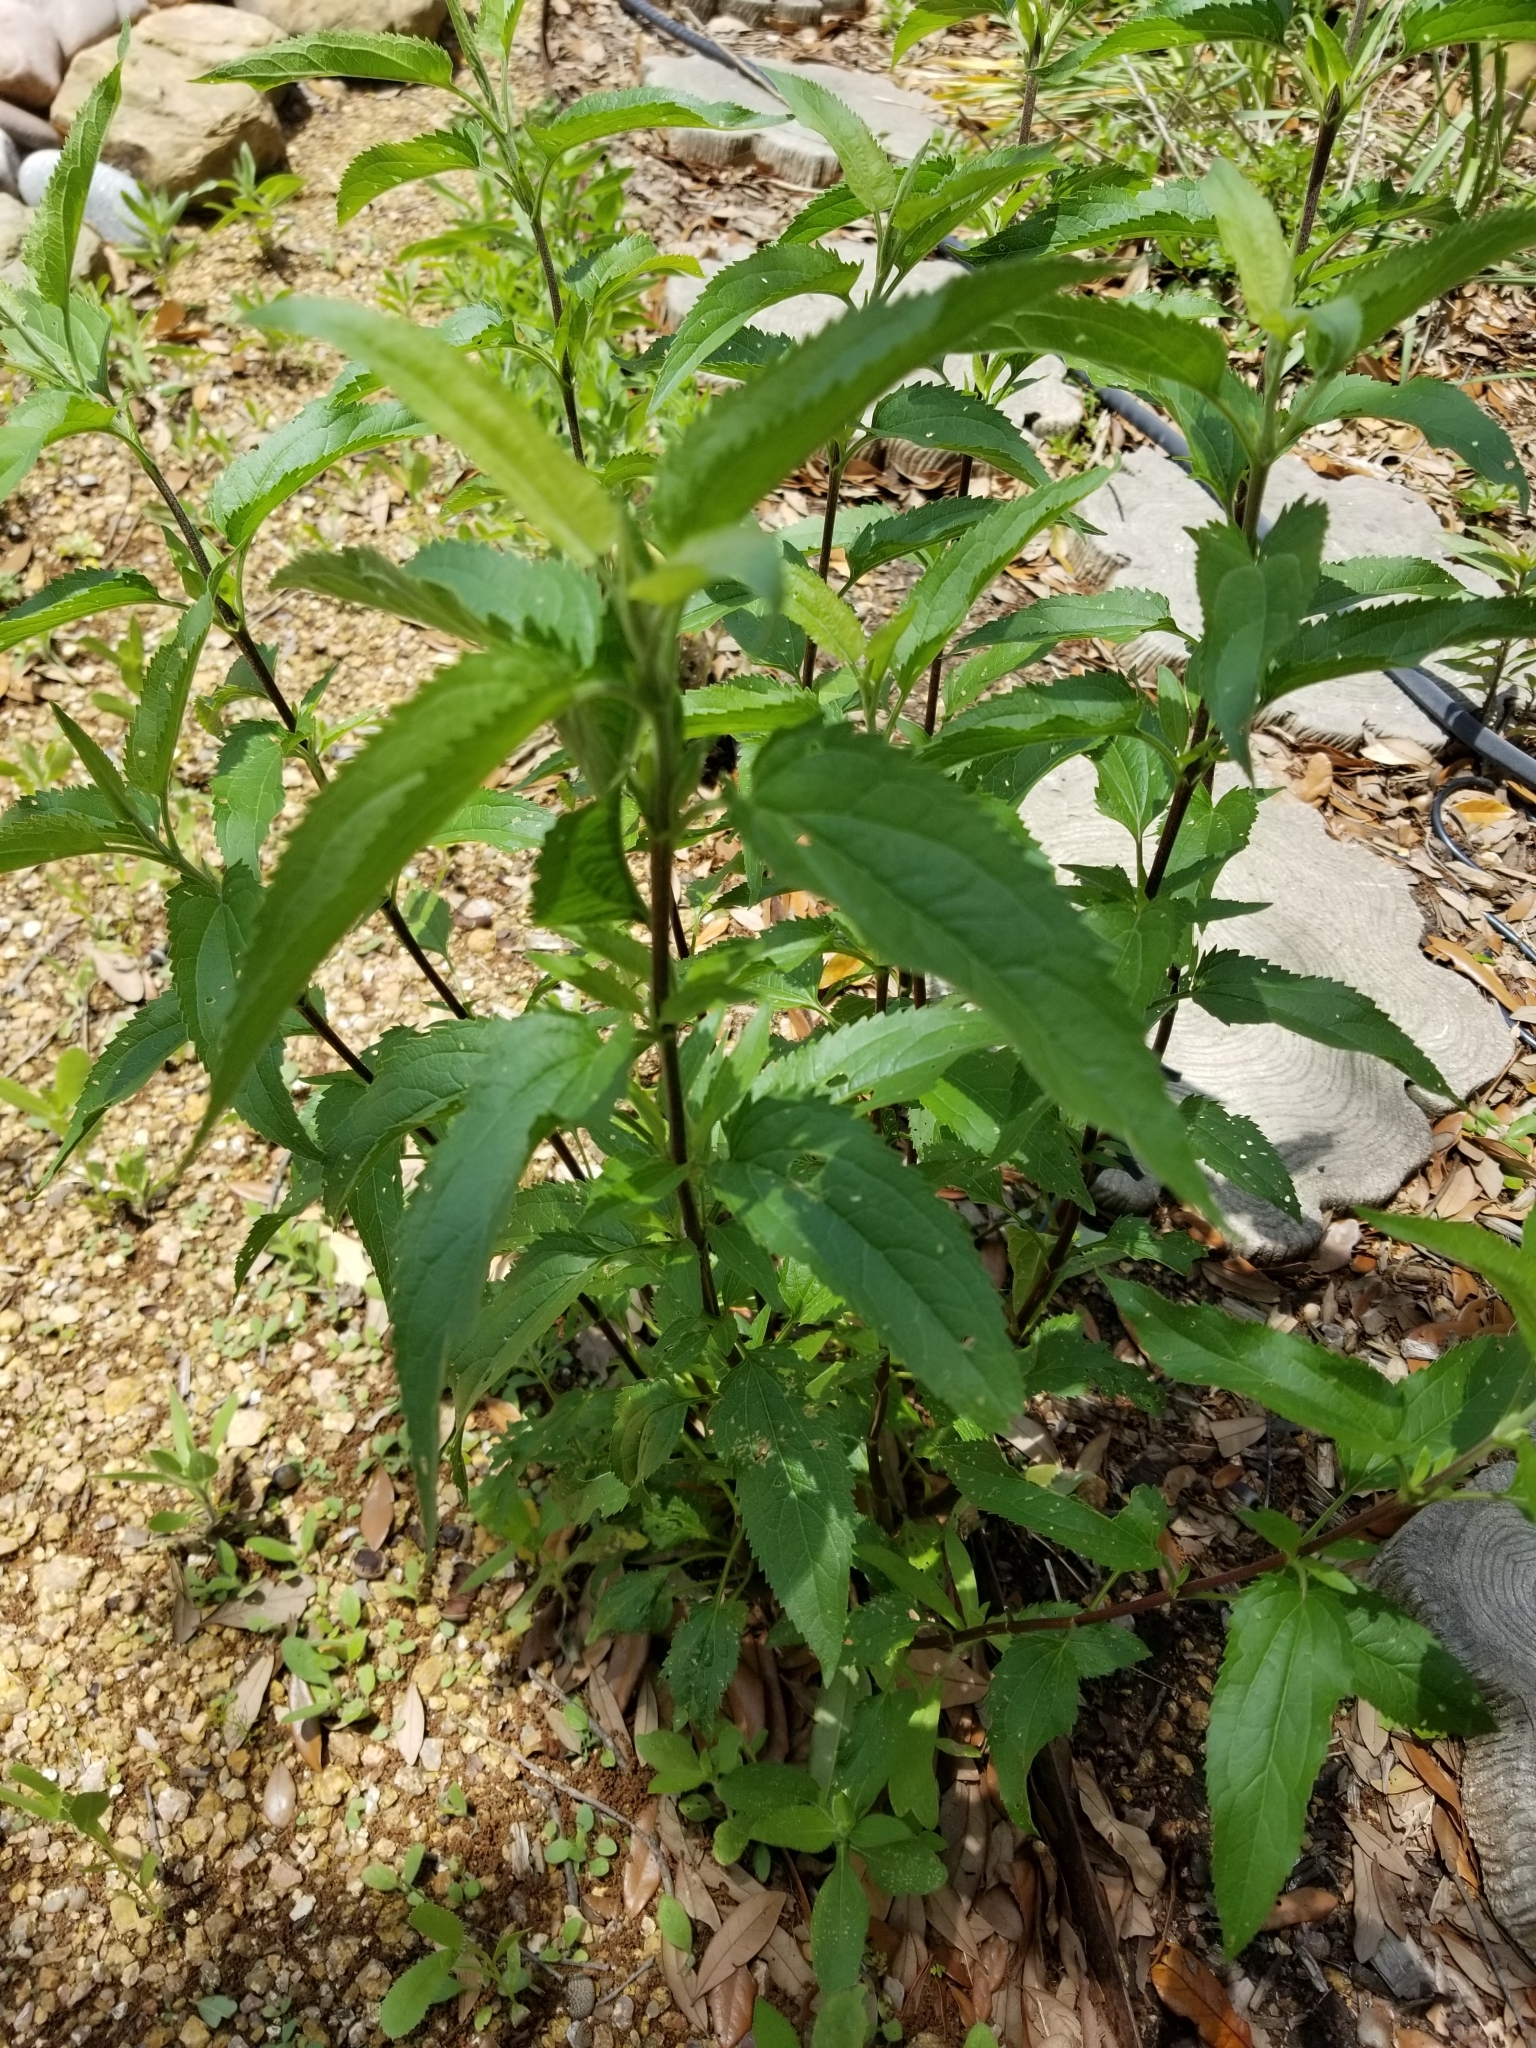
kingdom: Plantae
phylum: Tracheophyta
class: Magnoliopsida
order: Asterales
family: Asteraceae
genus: Eupatorium
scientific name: Eupatorium serotinum
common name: Late boneset
